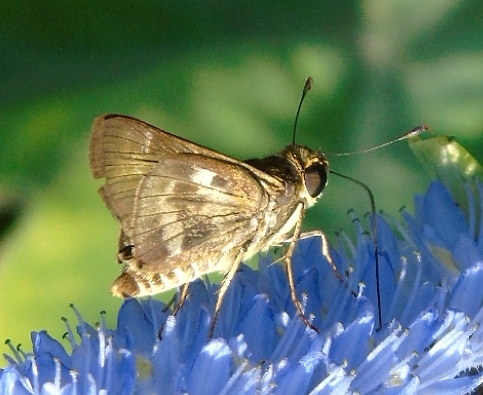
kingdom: Animalia
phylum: Arthropoda
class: Insecta
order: Lepidoptera
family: Hesperiidae
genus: Pompeius
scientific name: Pompeius pompeius
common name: Pompeius skipper
